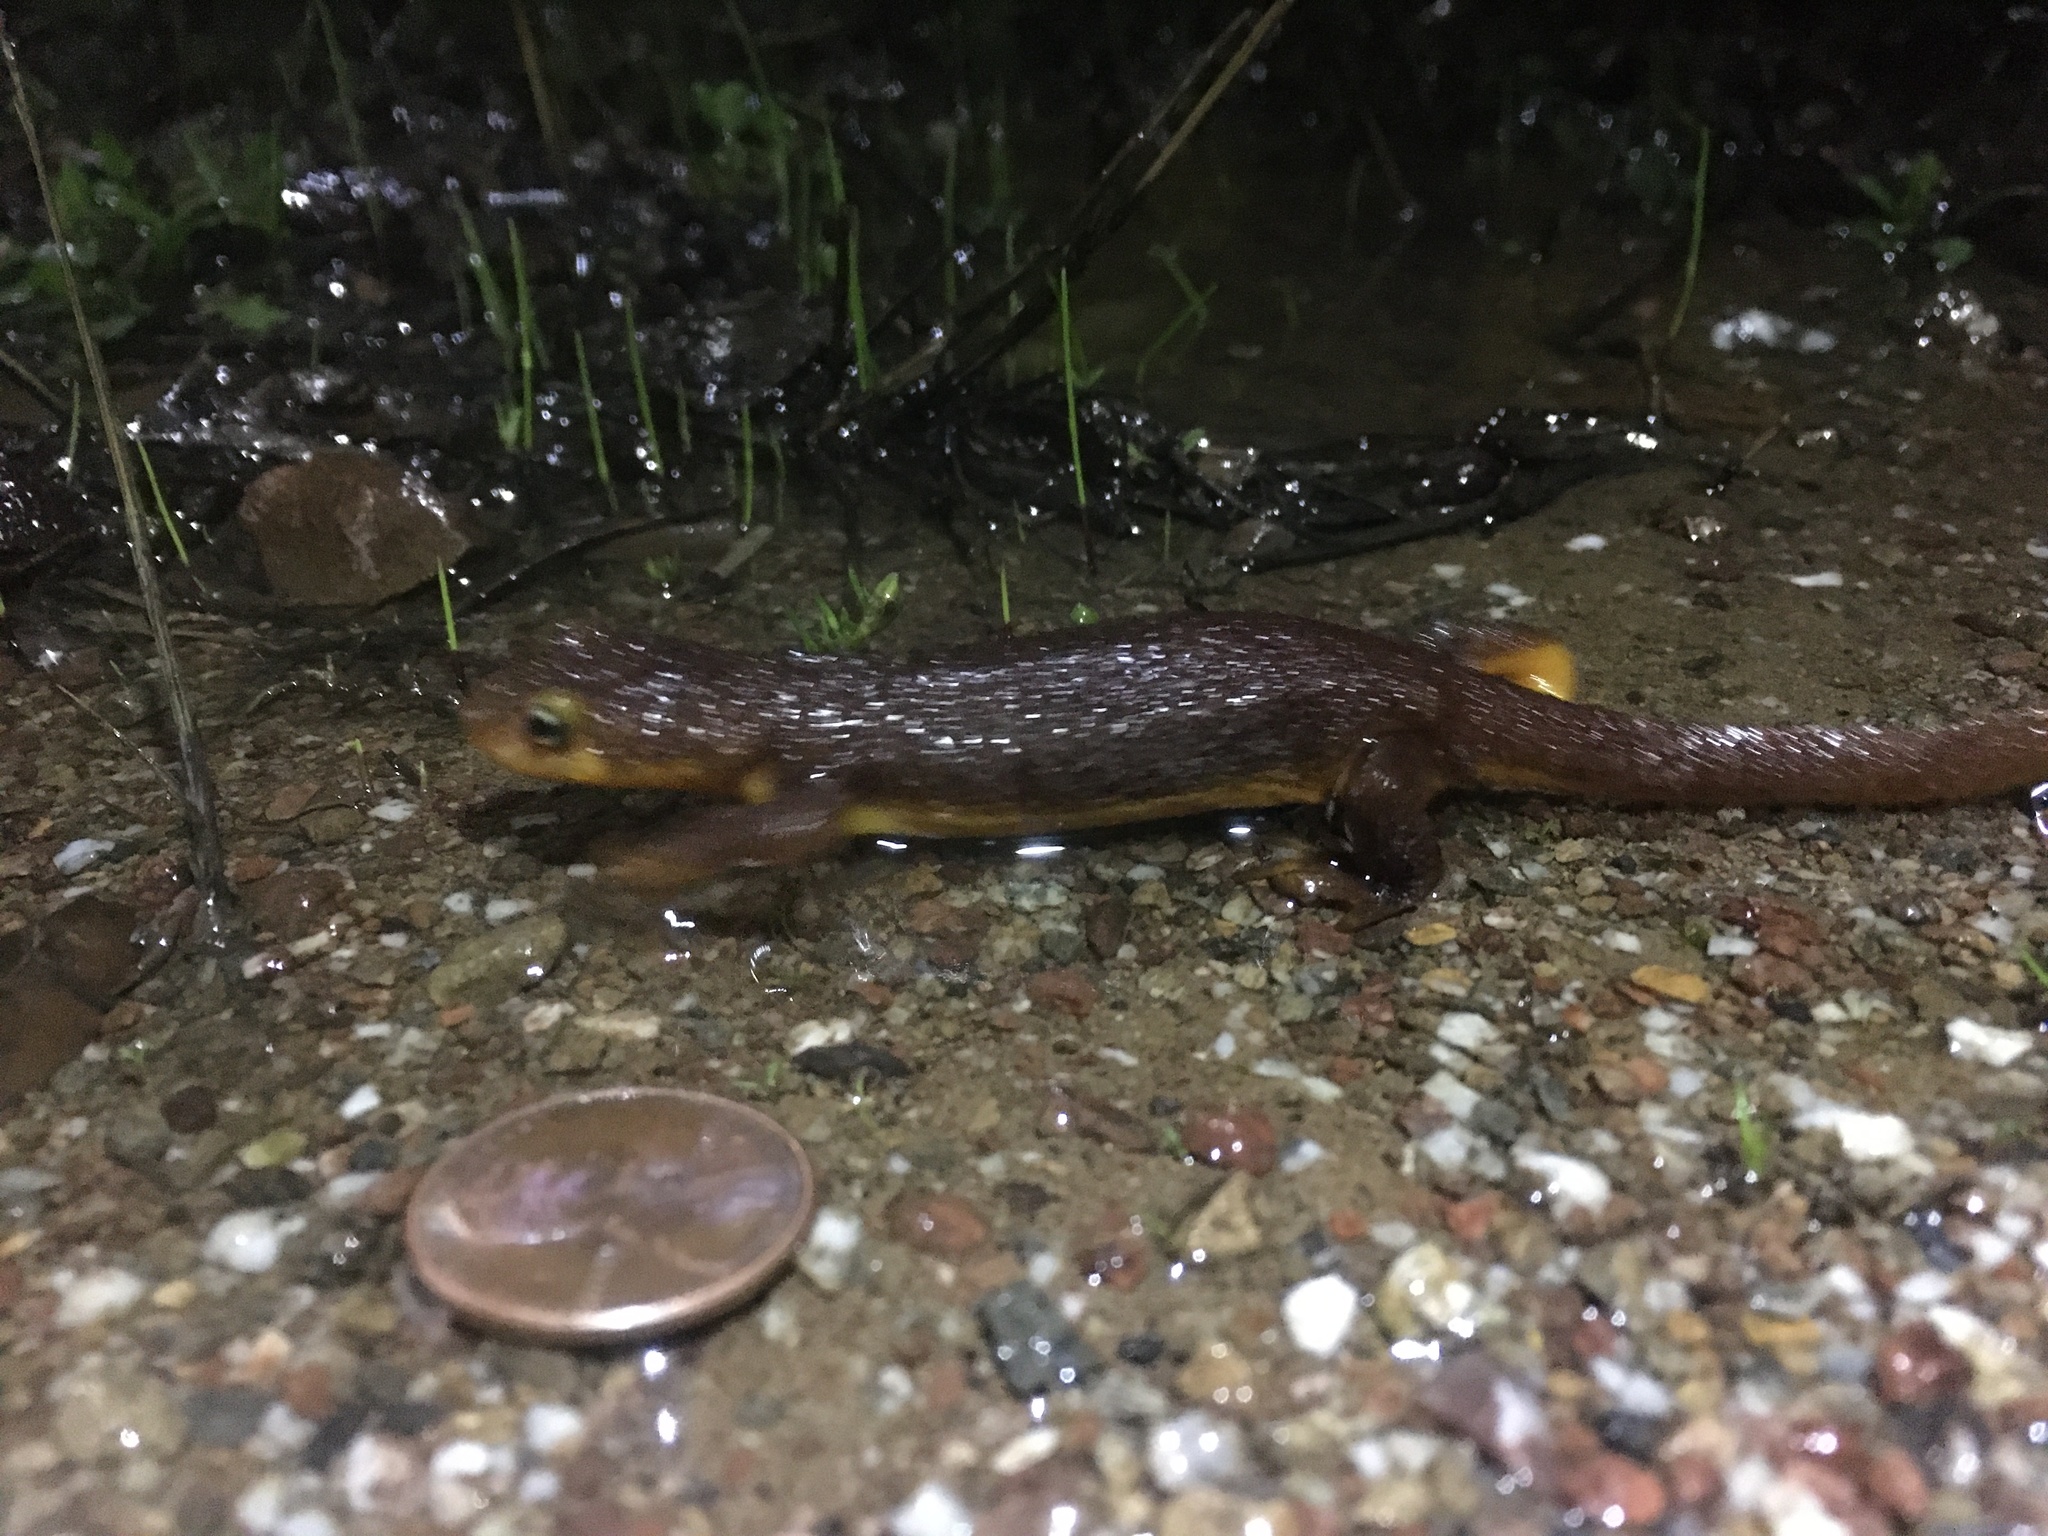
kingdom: Animalia
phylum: Chordata
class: Amphibia
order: Caudata
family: Salamandridae
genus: Taricha
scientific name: Taricha torosa
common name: California newt
